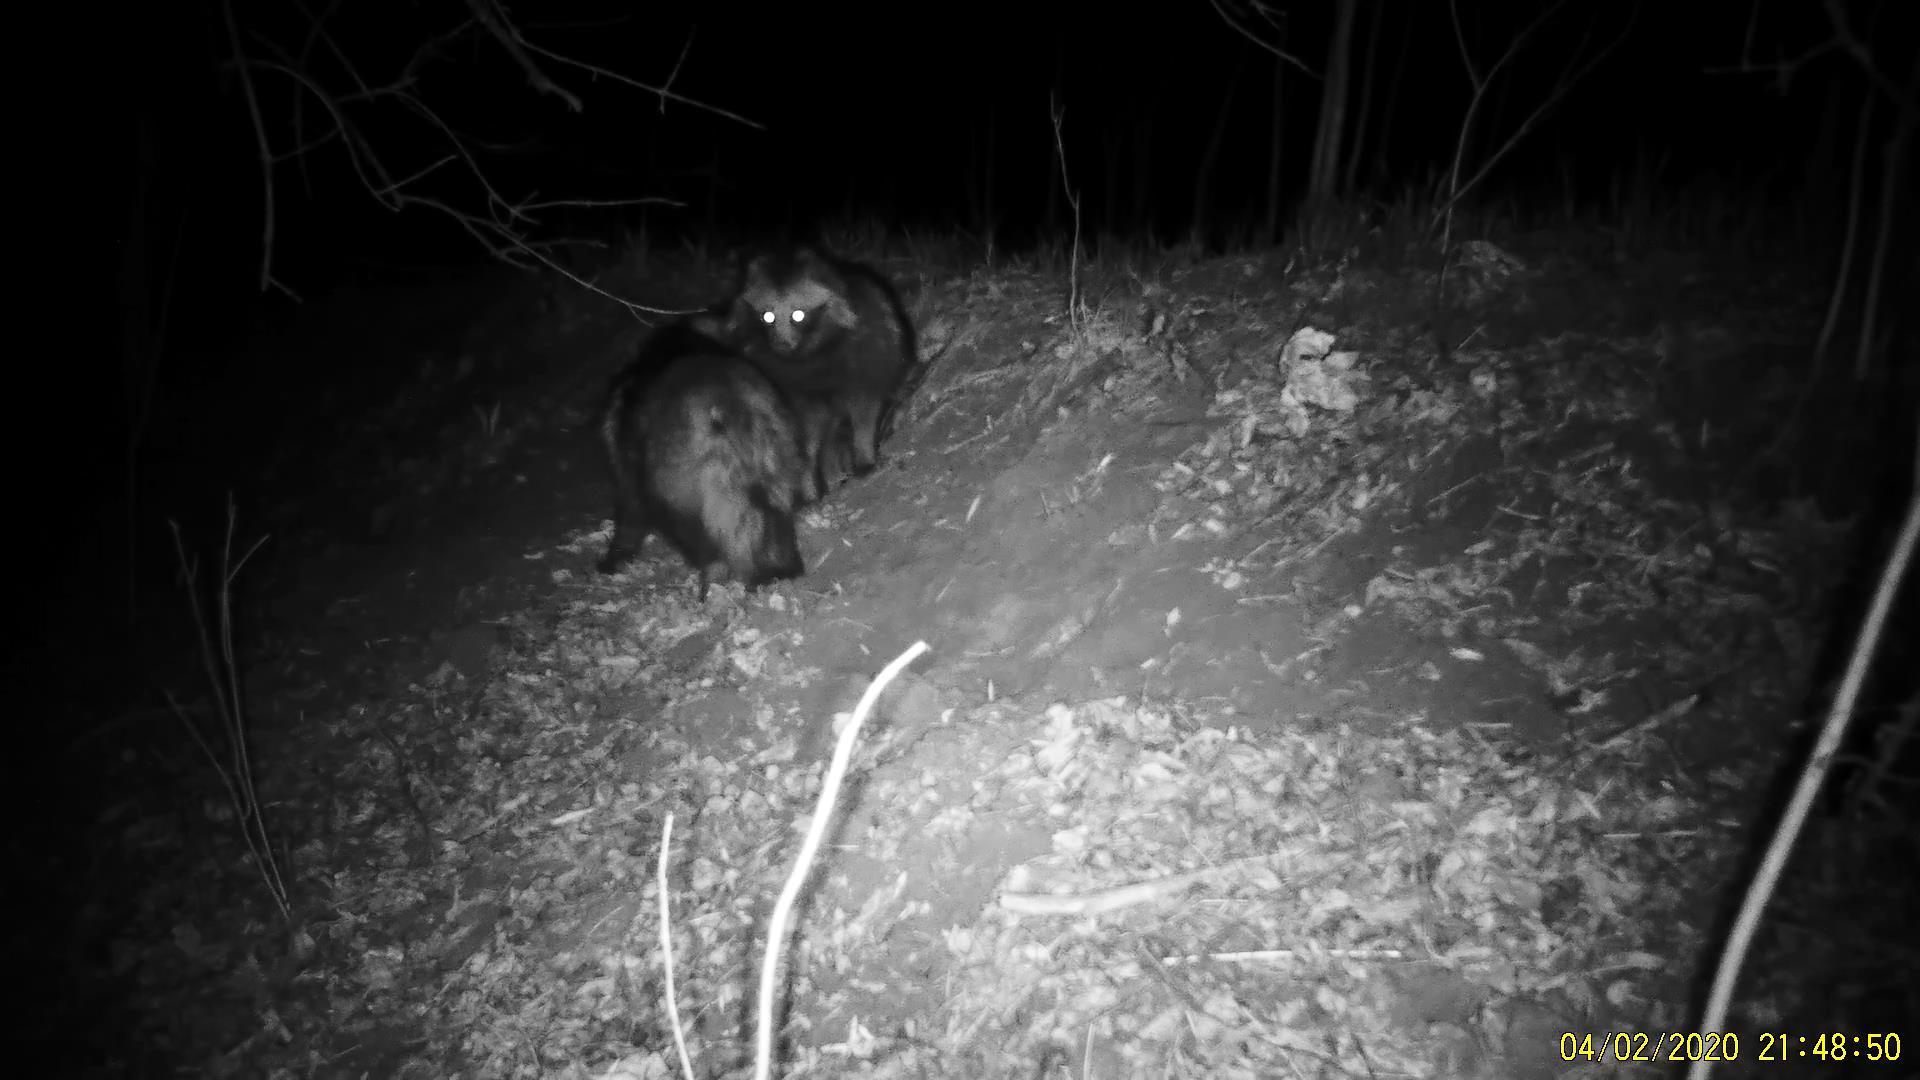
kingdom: Animalia
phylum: Chordata
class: Mammalia
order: Carnivora
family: Canidae
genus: Nyctereutes
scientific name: Nyctereutes procyonoides
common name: Raccoon dog
